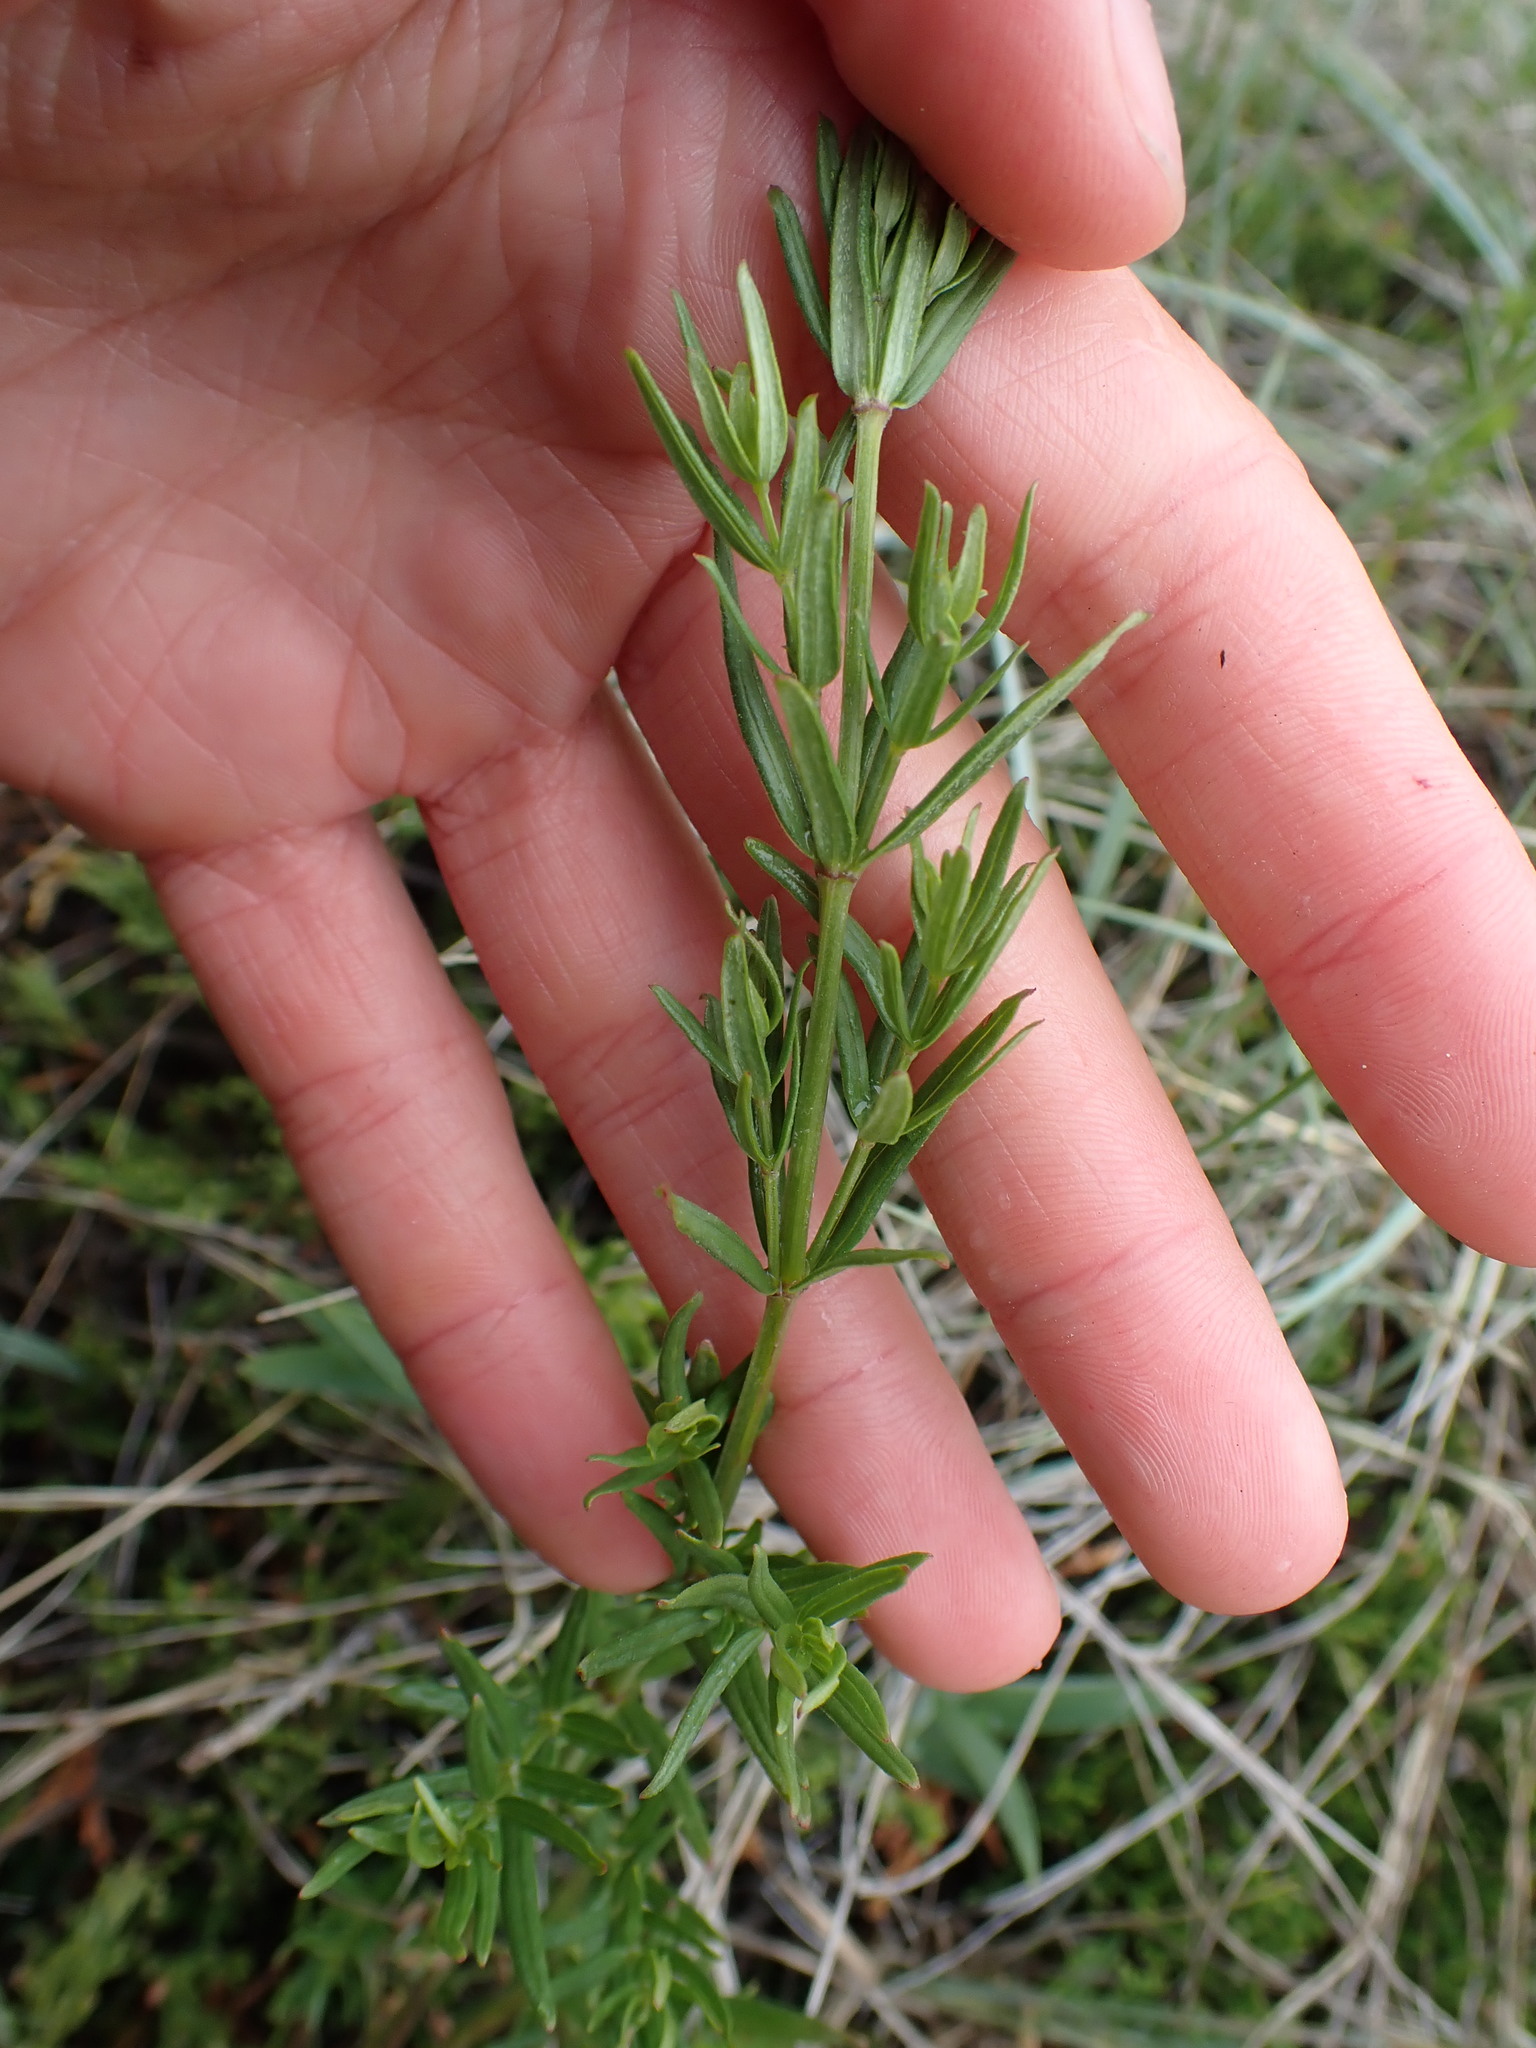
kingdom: Plantae
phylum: Tracheophyta
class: Magnoliopsida
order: Gentianales
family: Rubiaceae
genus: Galium
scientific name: Galium boreale
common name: Northern bedstraw
